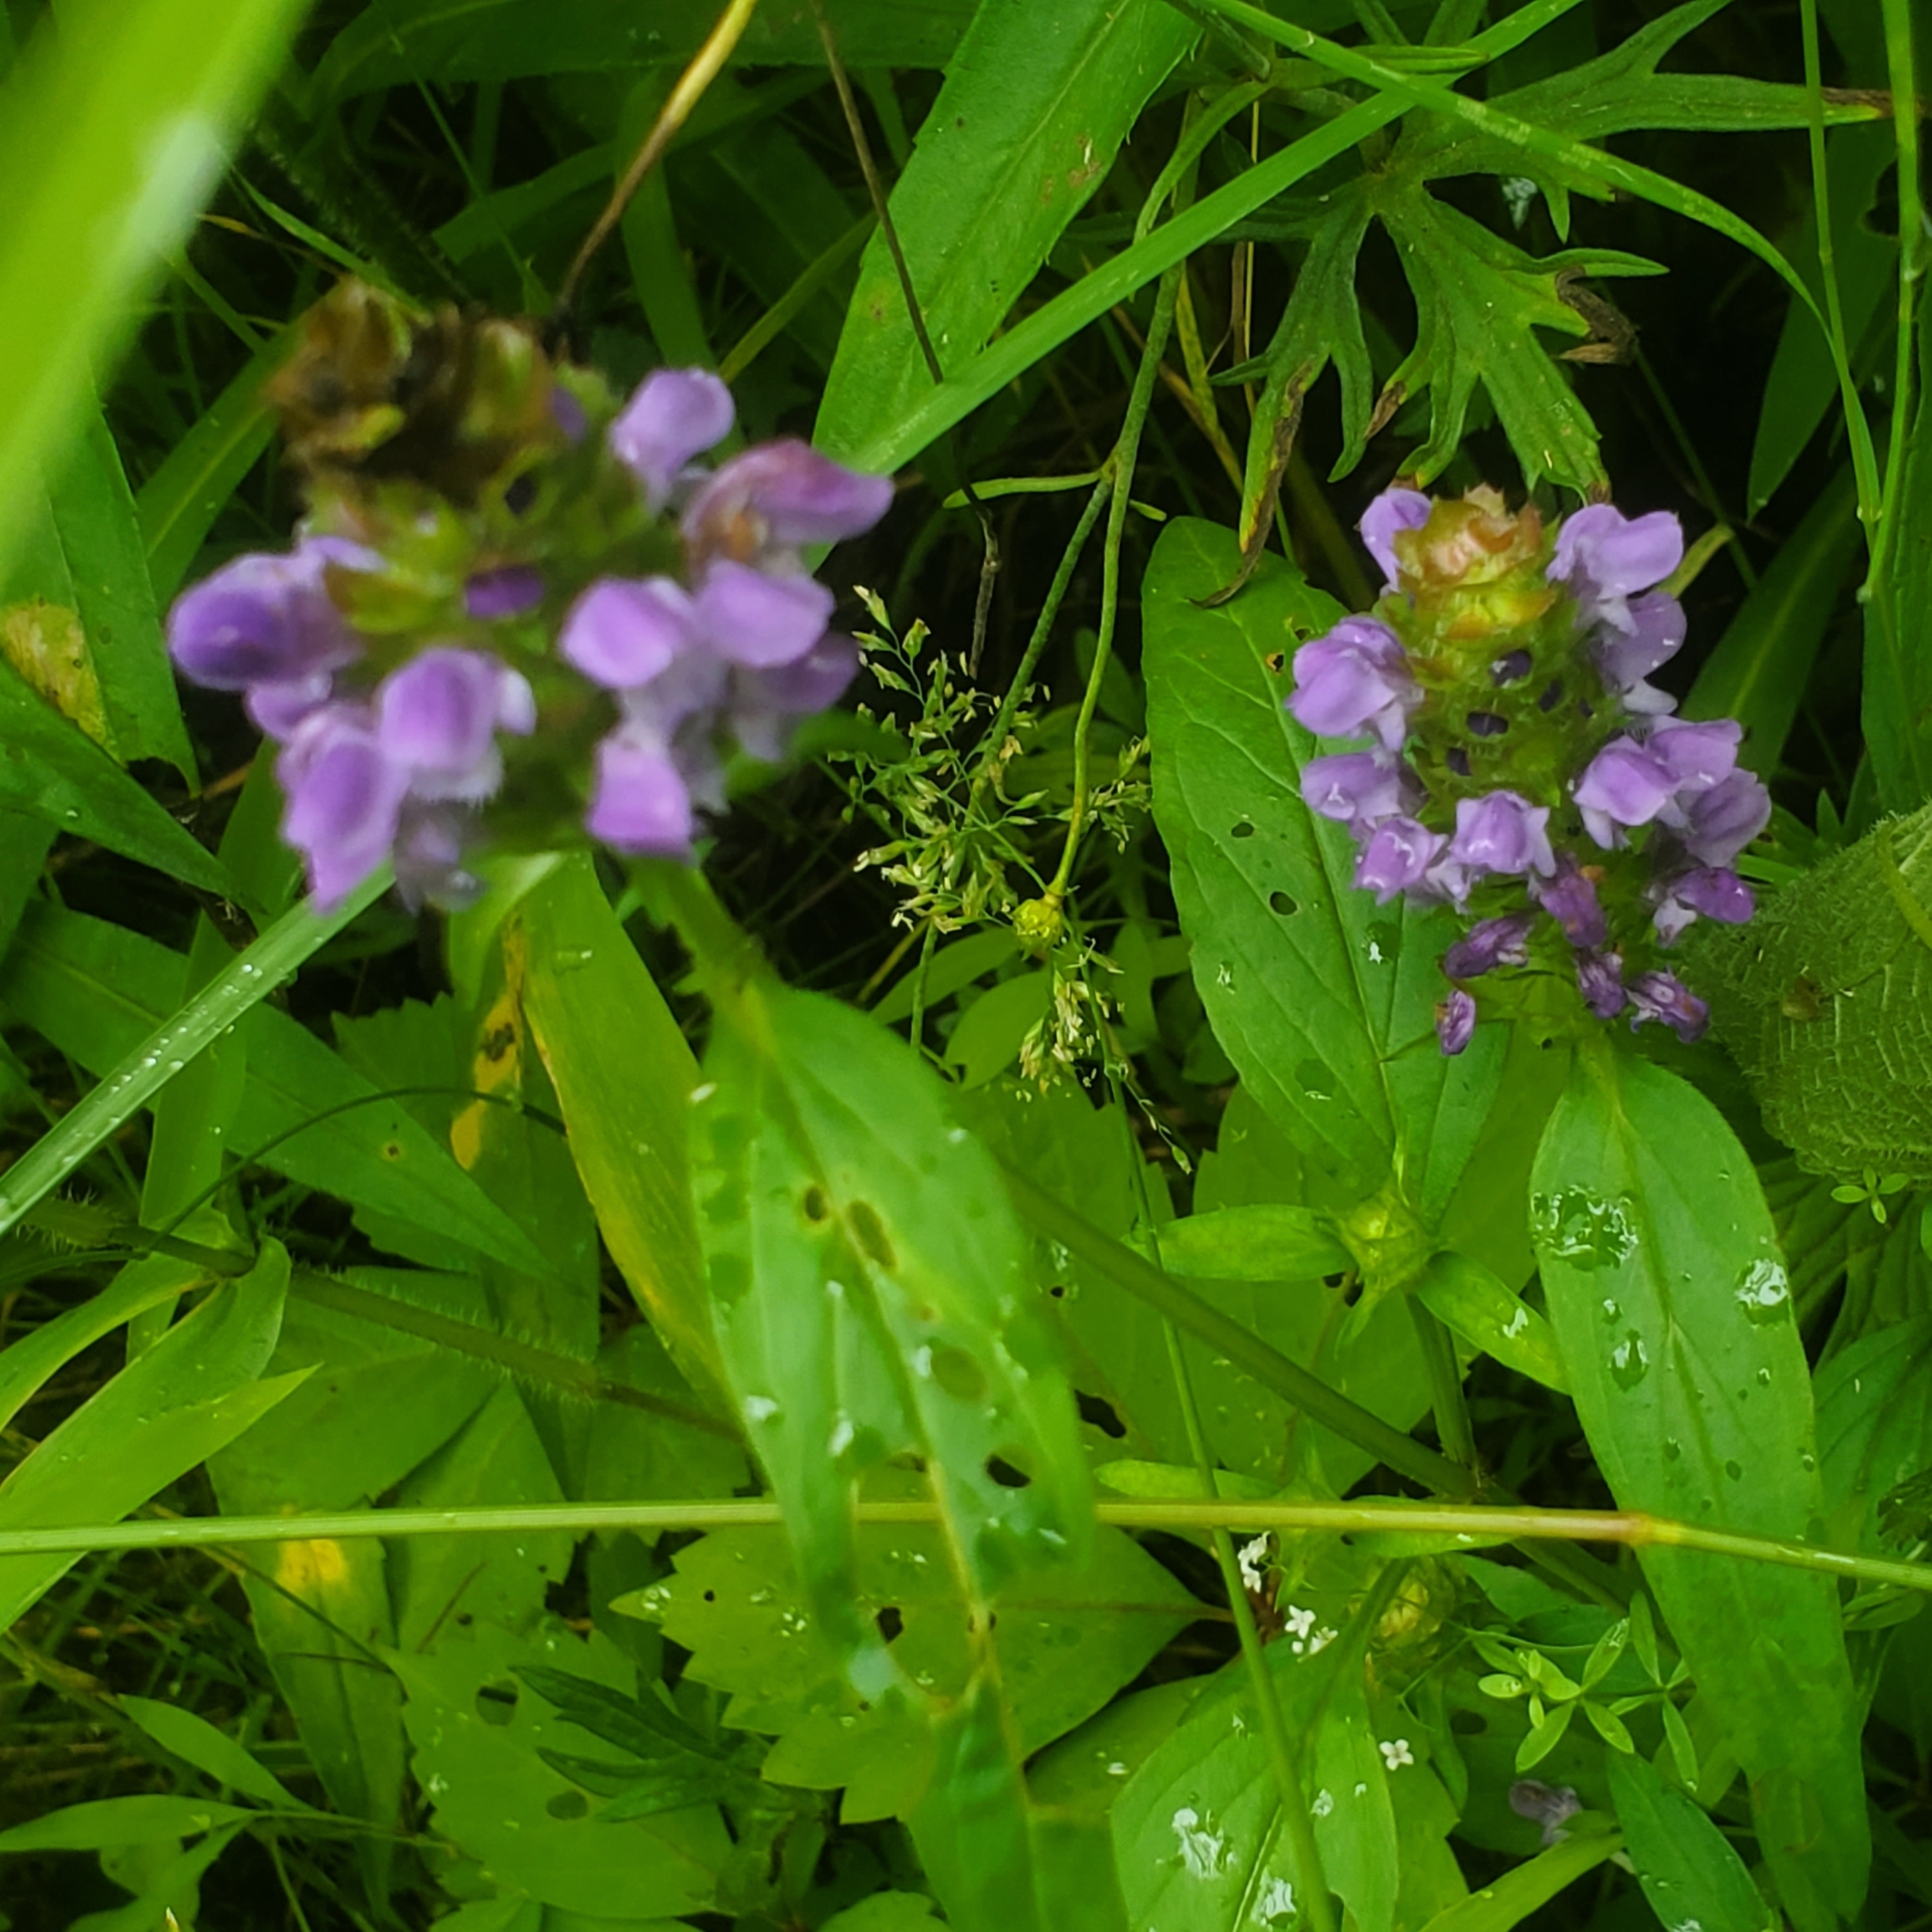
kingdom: Plantae
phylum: Tracheophyta
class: Magnoliopsida
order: Lamiales
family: Lamiaceae
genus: Prunella
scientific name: Prunella vulgaris
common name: Heal-all
